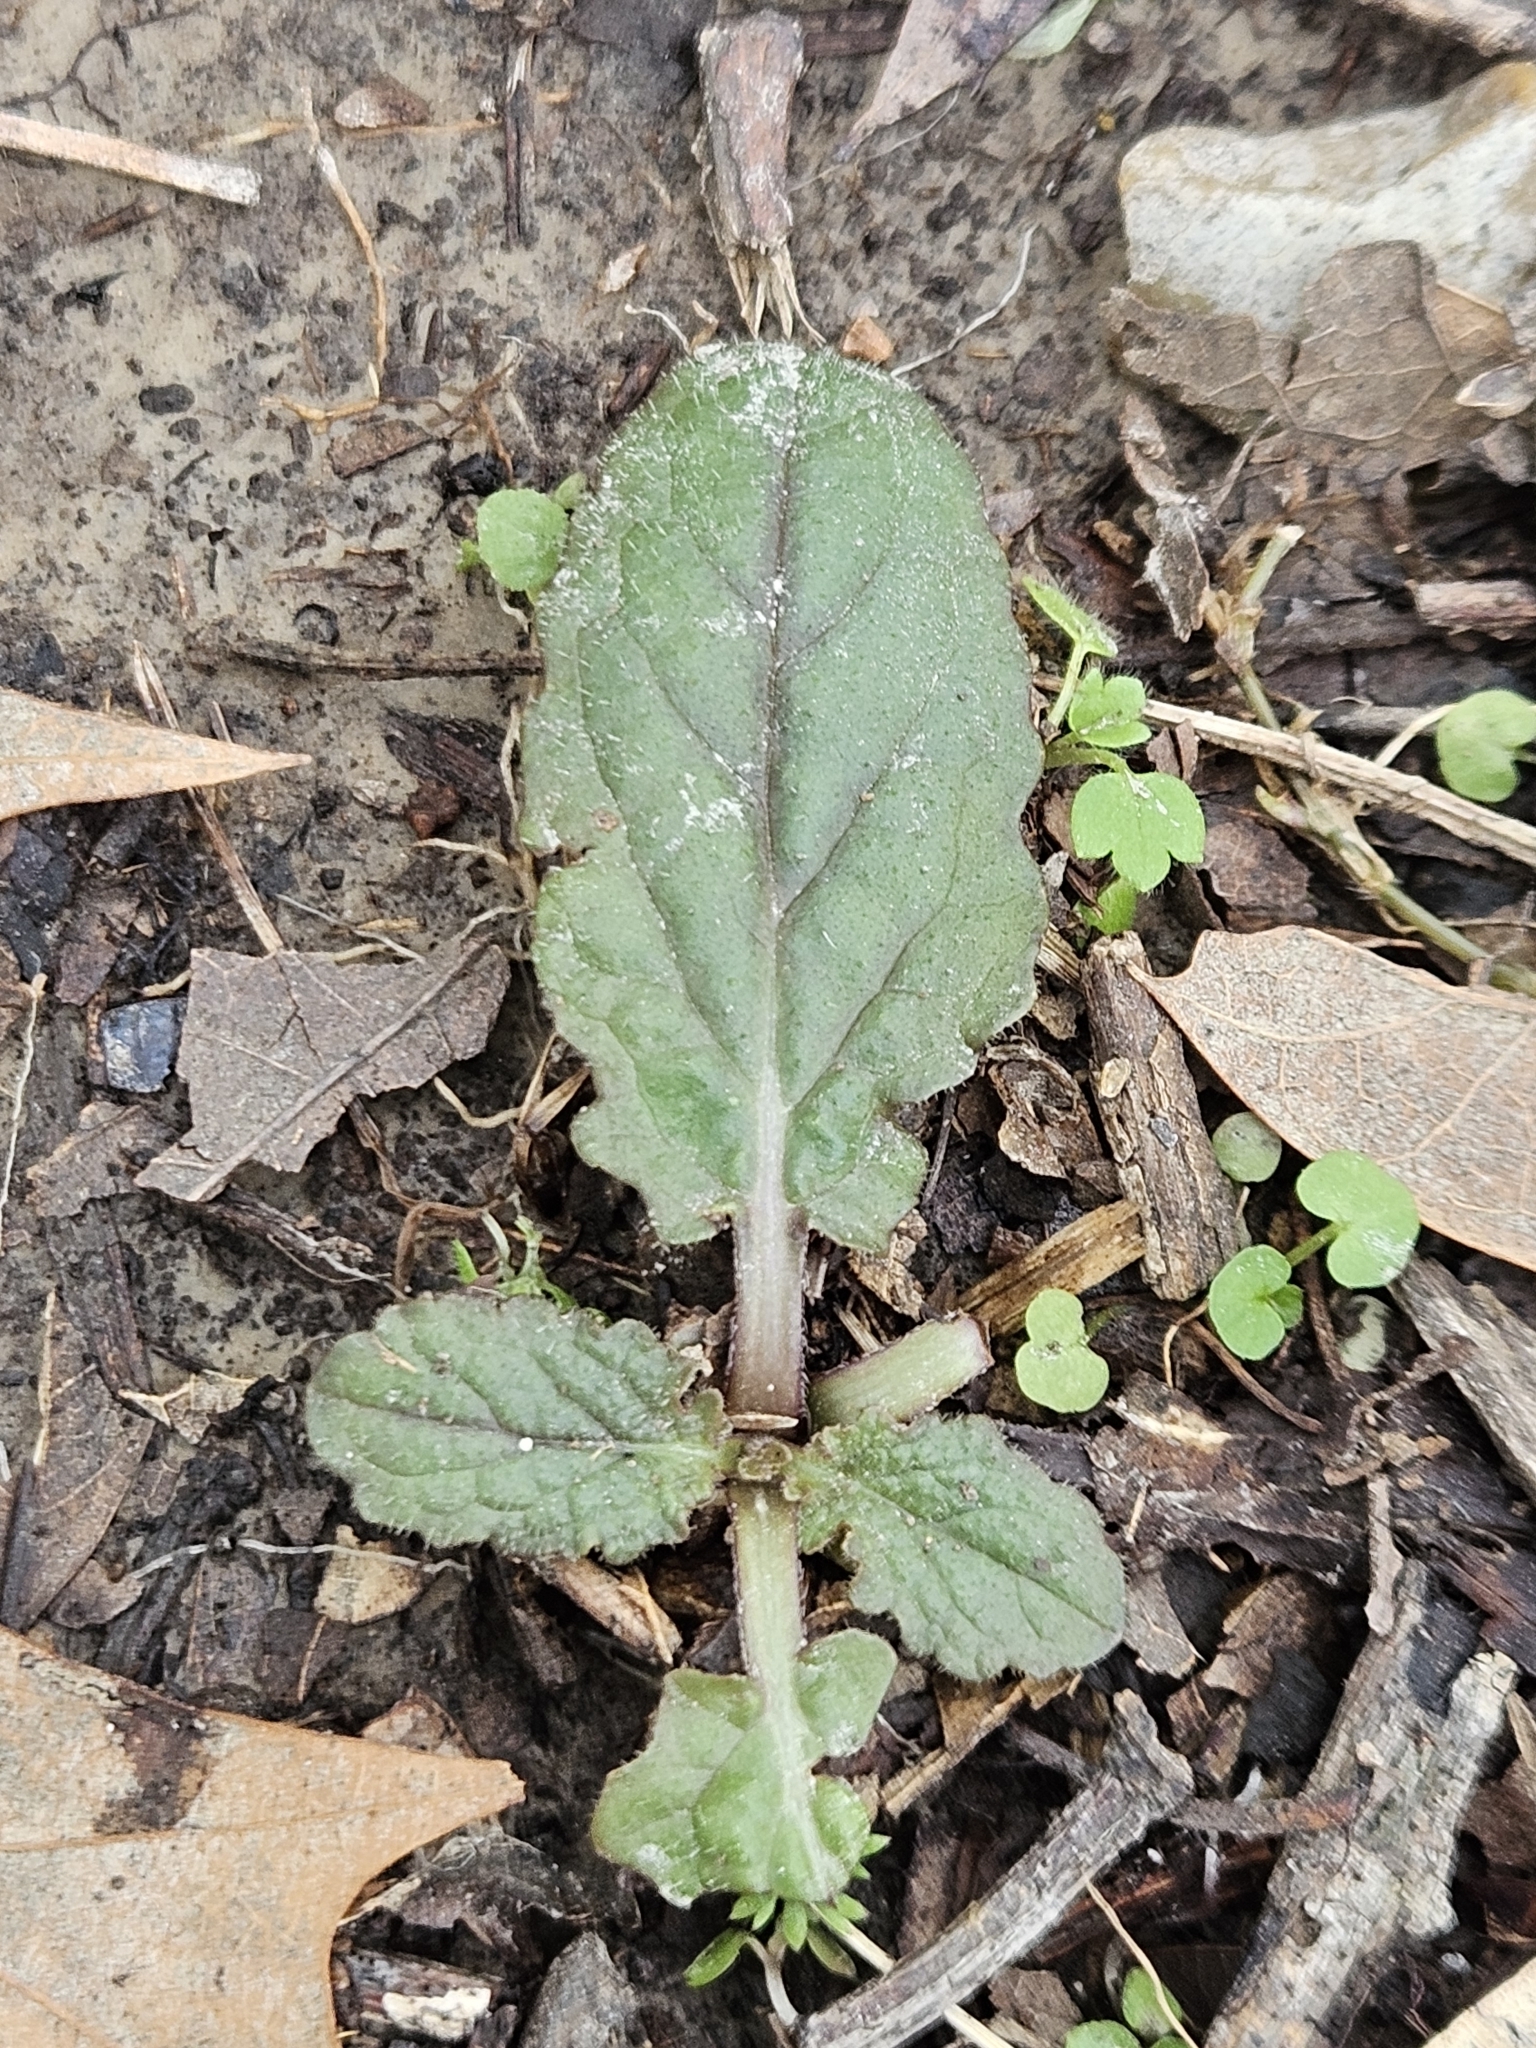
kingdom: Plantae
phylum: Tracheophyta
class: Magnoliopsida
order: Lamiales
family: Lamiaceae
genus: Salvia
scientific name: Salvia lyrata
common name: Cancerweed
